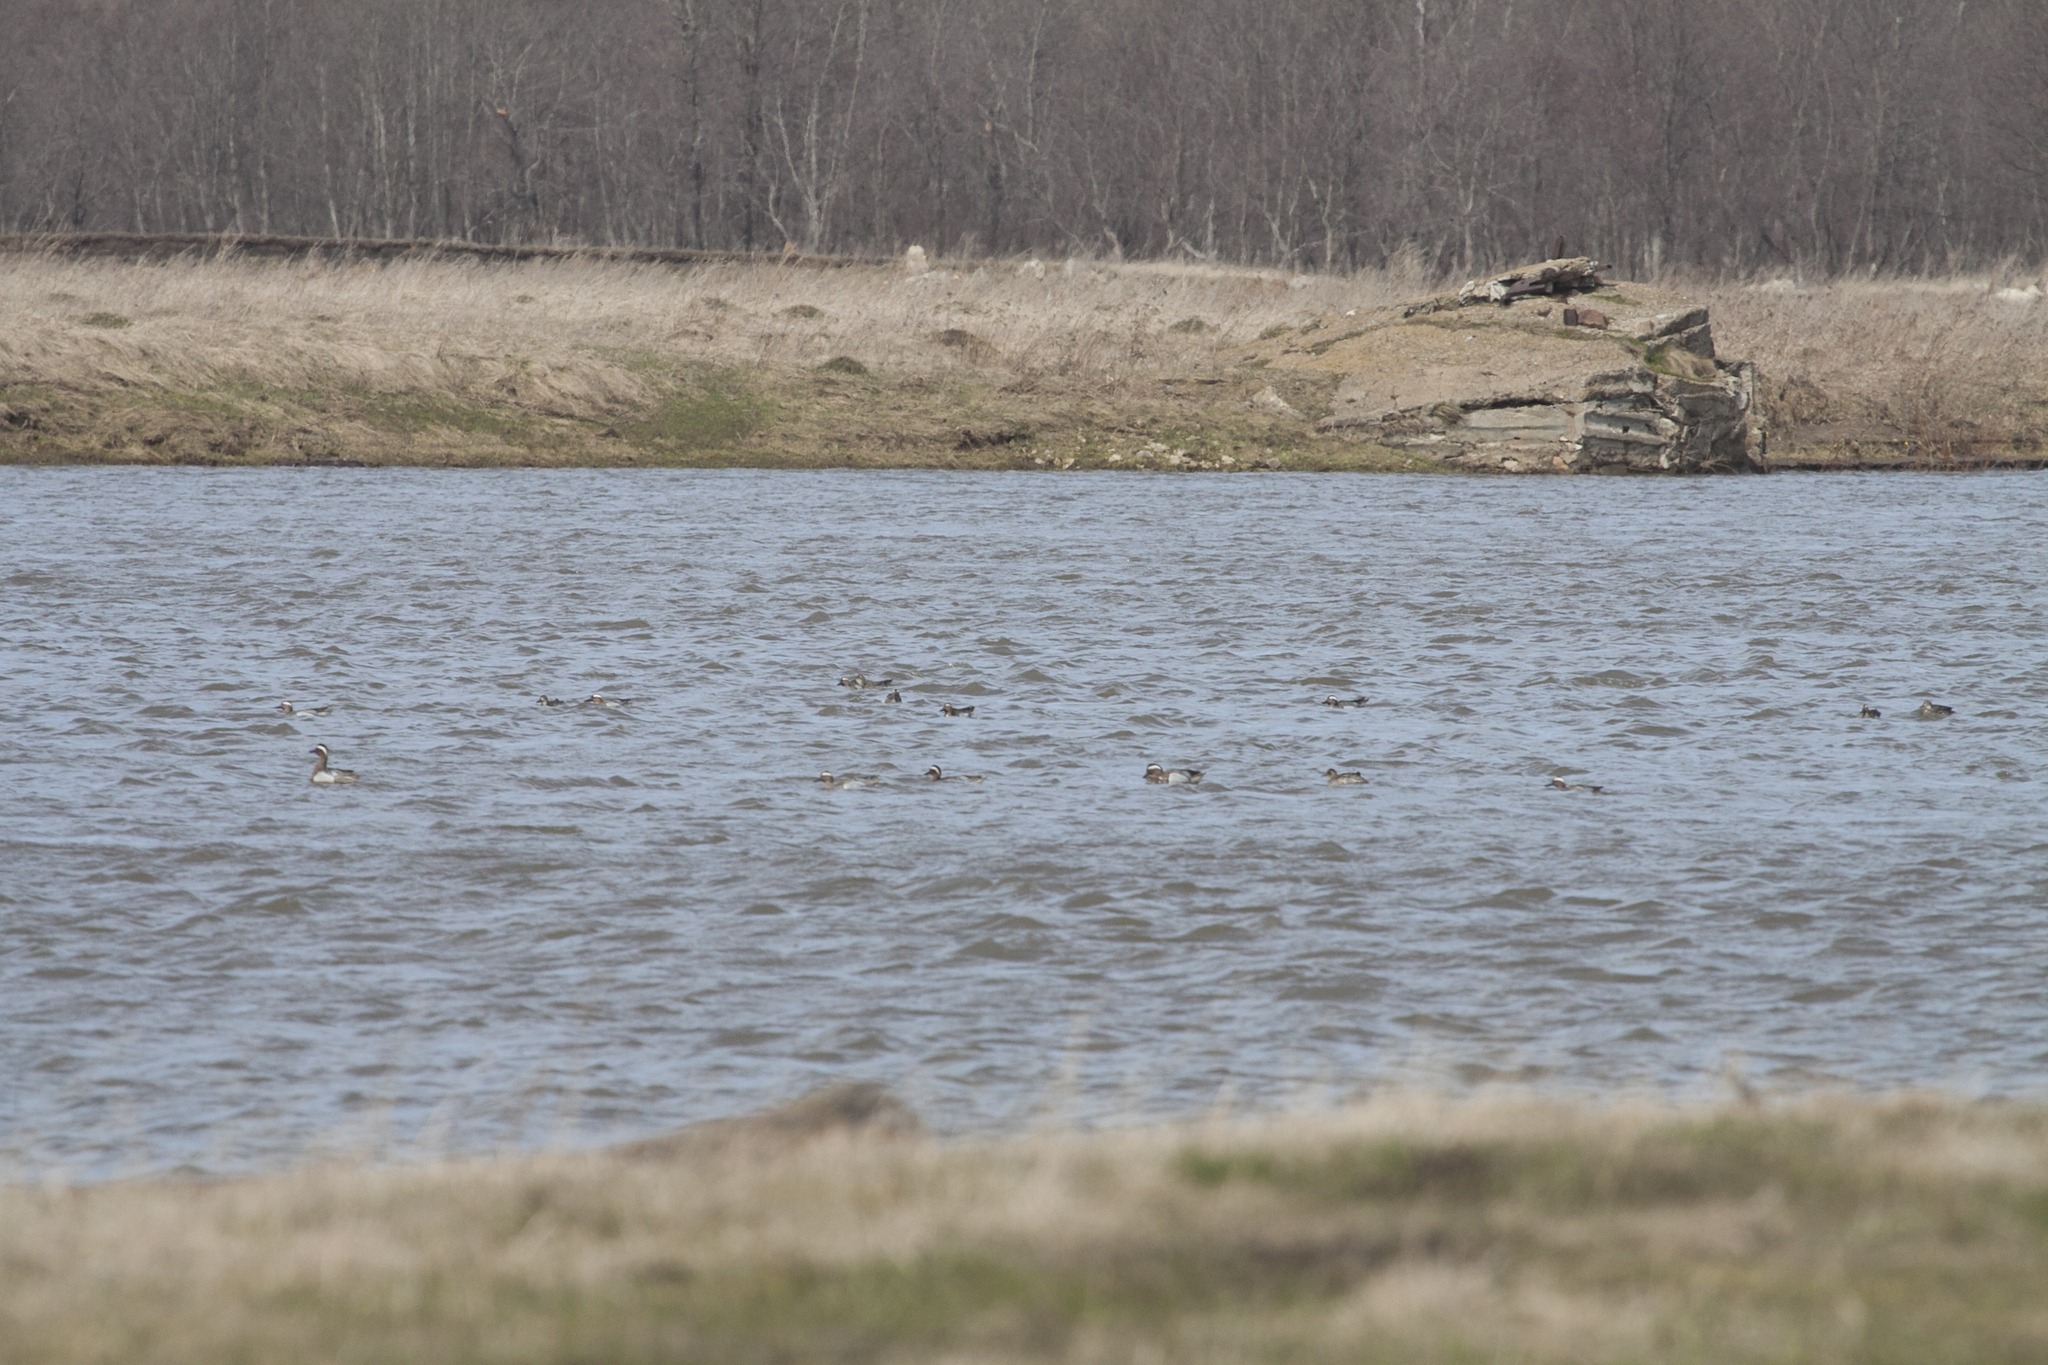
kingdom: Animalia
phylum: Chordata
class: Aves
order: Anseriformes
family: Anatidae
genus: Spatula
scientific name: Spatula querquedula
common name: Garganey
